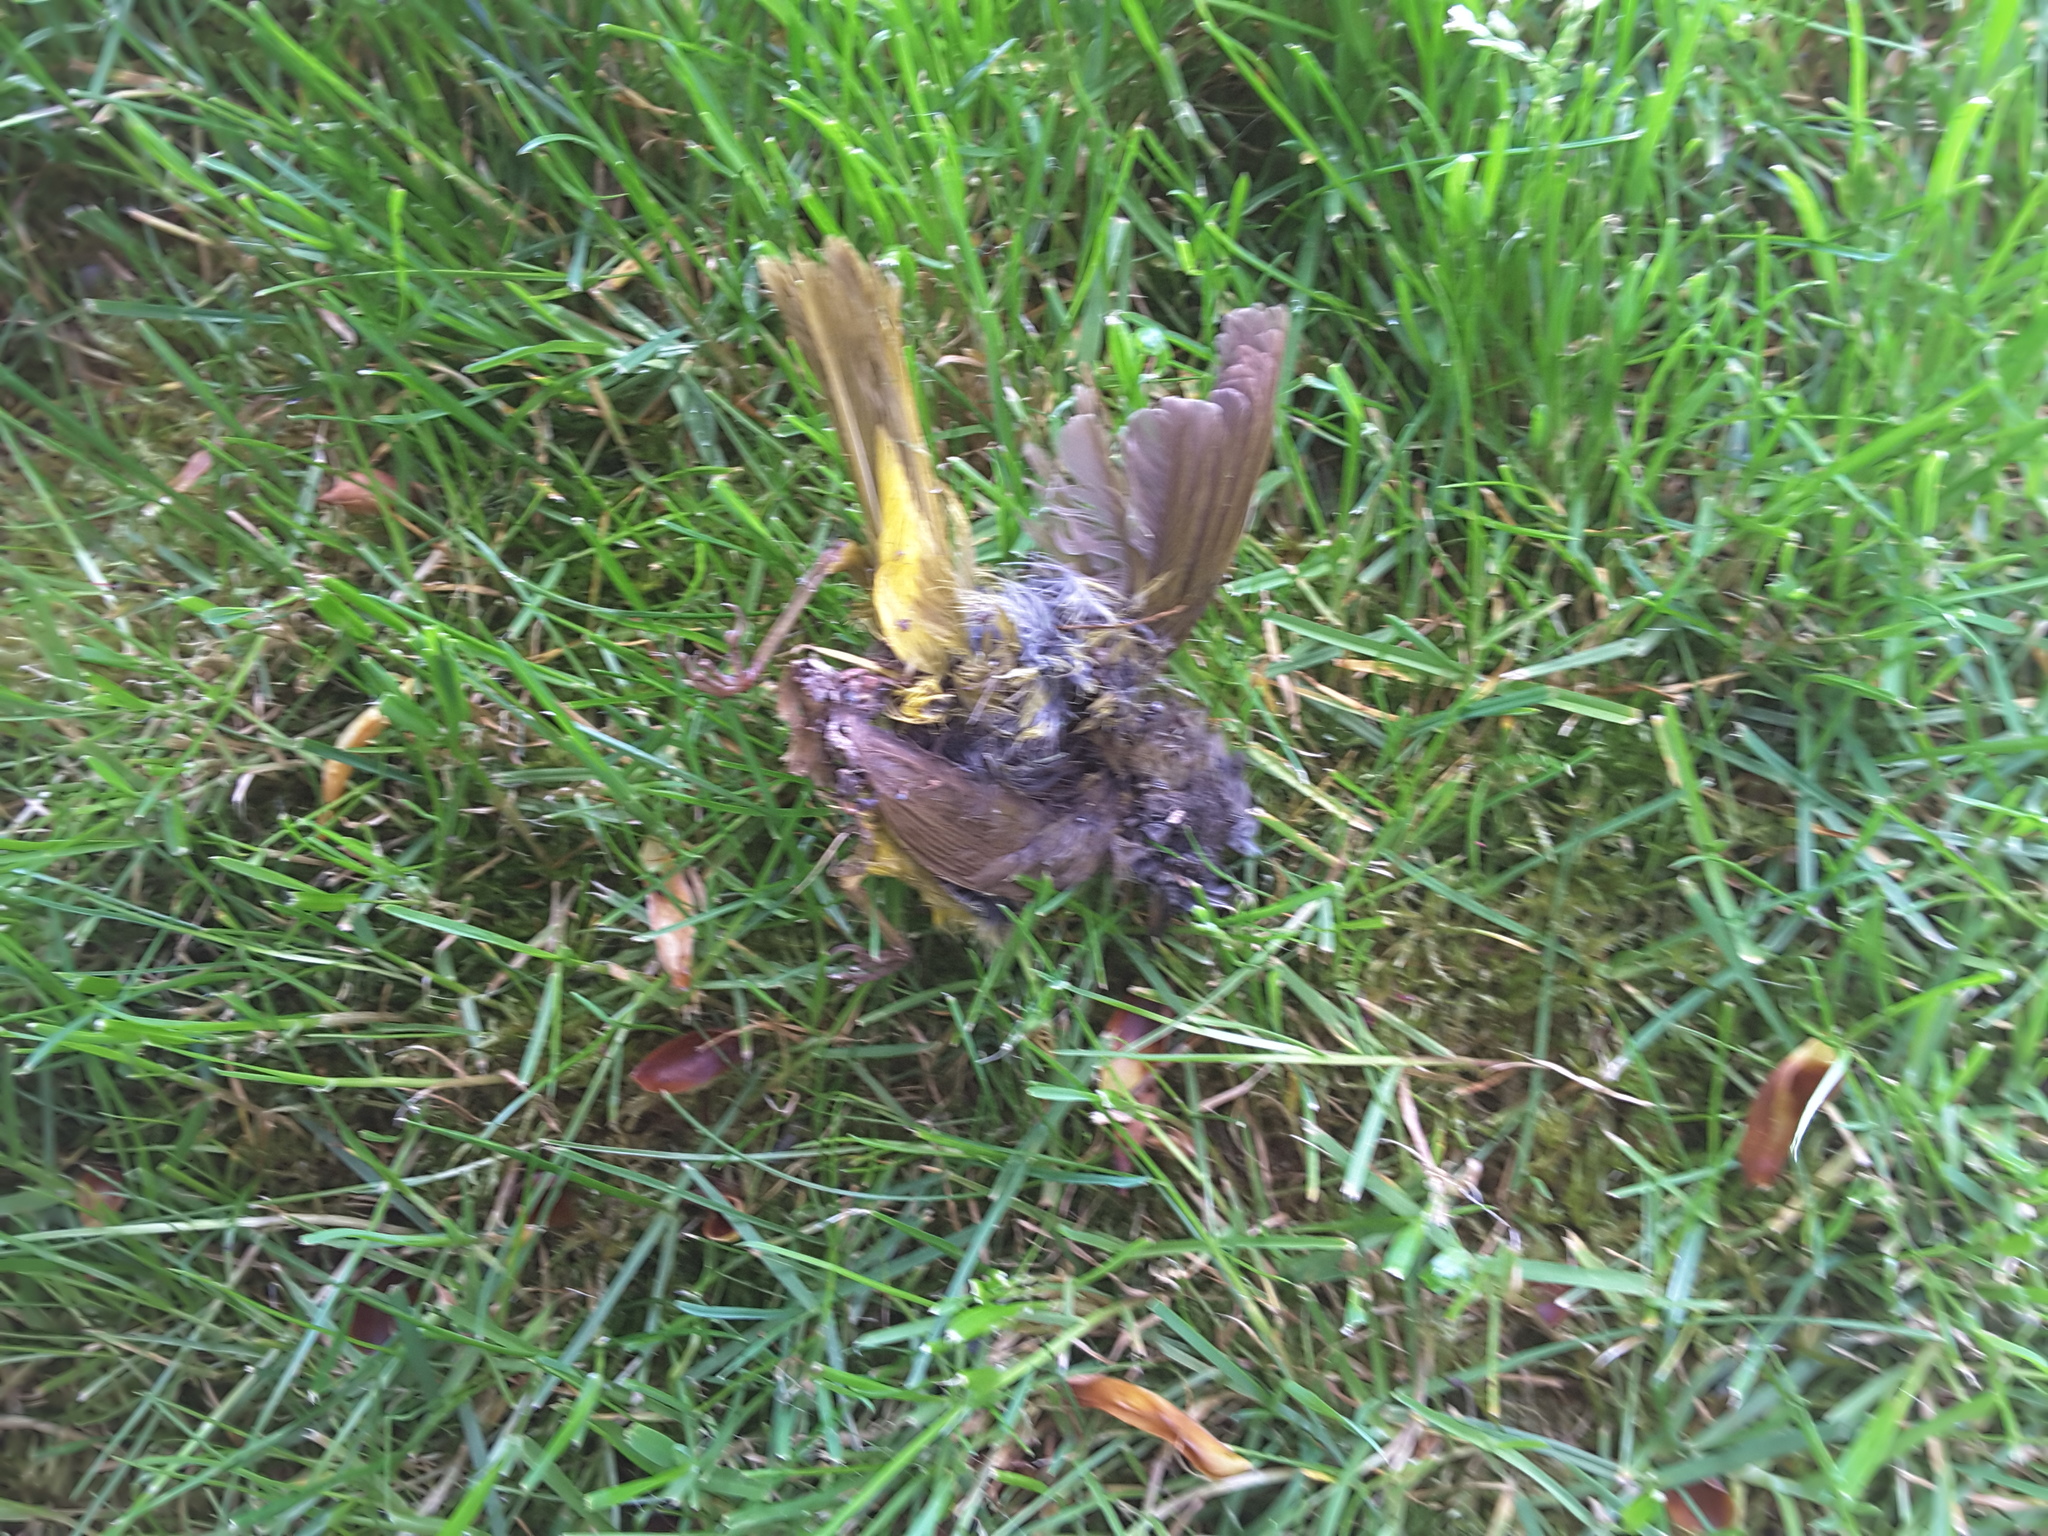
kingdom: Animalia
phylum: Chordata
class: Aves
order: Passeriformes
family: Parulidae
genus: Geothlypis
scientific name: Geothlypis tolmiei
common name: Macgillivray's warbler
